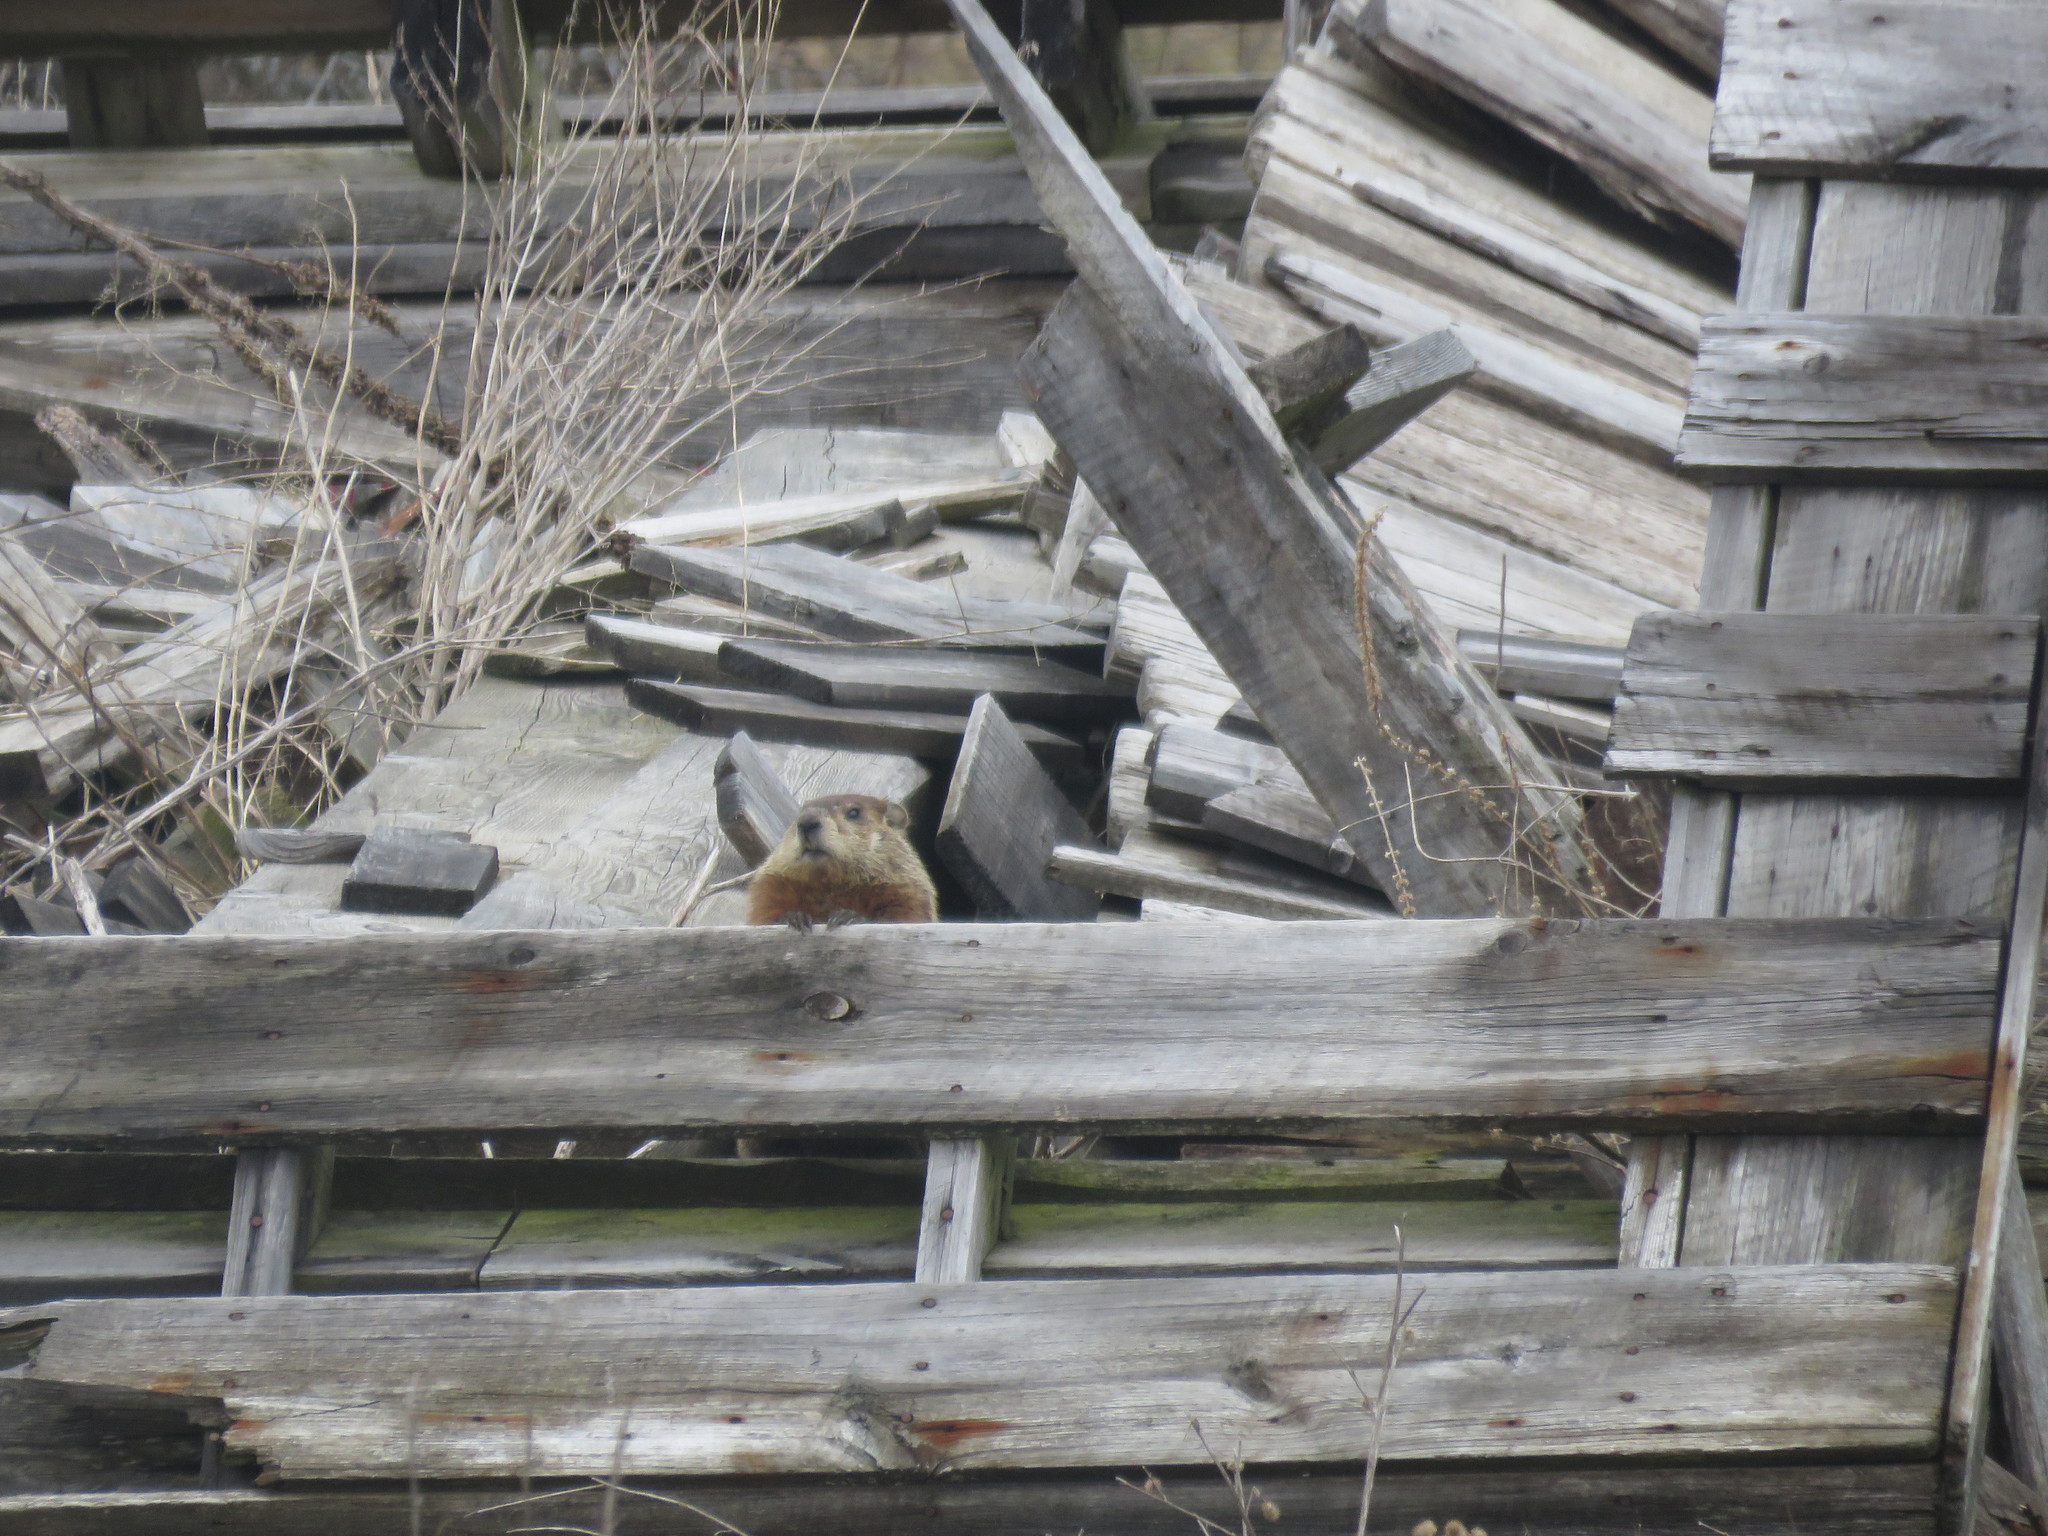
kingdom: Animalia
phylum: Chordata
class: Mammalia
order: Rodentia
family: Sciuridae
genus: Marmota
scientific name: Marmota monax
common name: Groundhog
